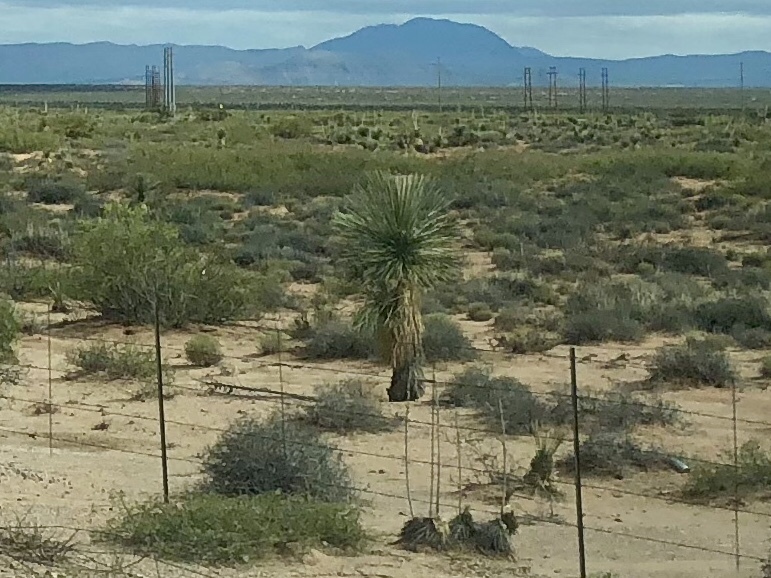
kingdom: Plantae
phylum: Tracheophyta
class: Liliopsida
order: Asparagales
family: Asparagaceae
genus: Yucca
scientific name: Yucca elata
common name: Palmella
